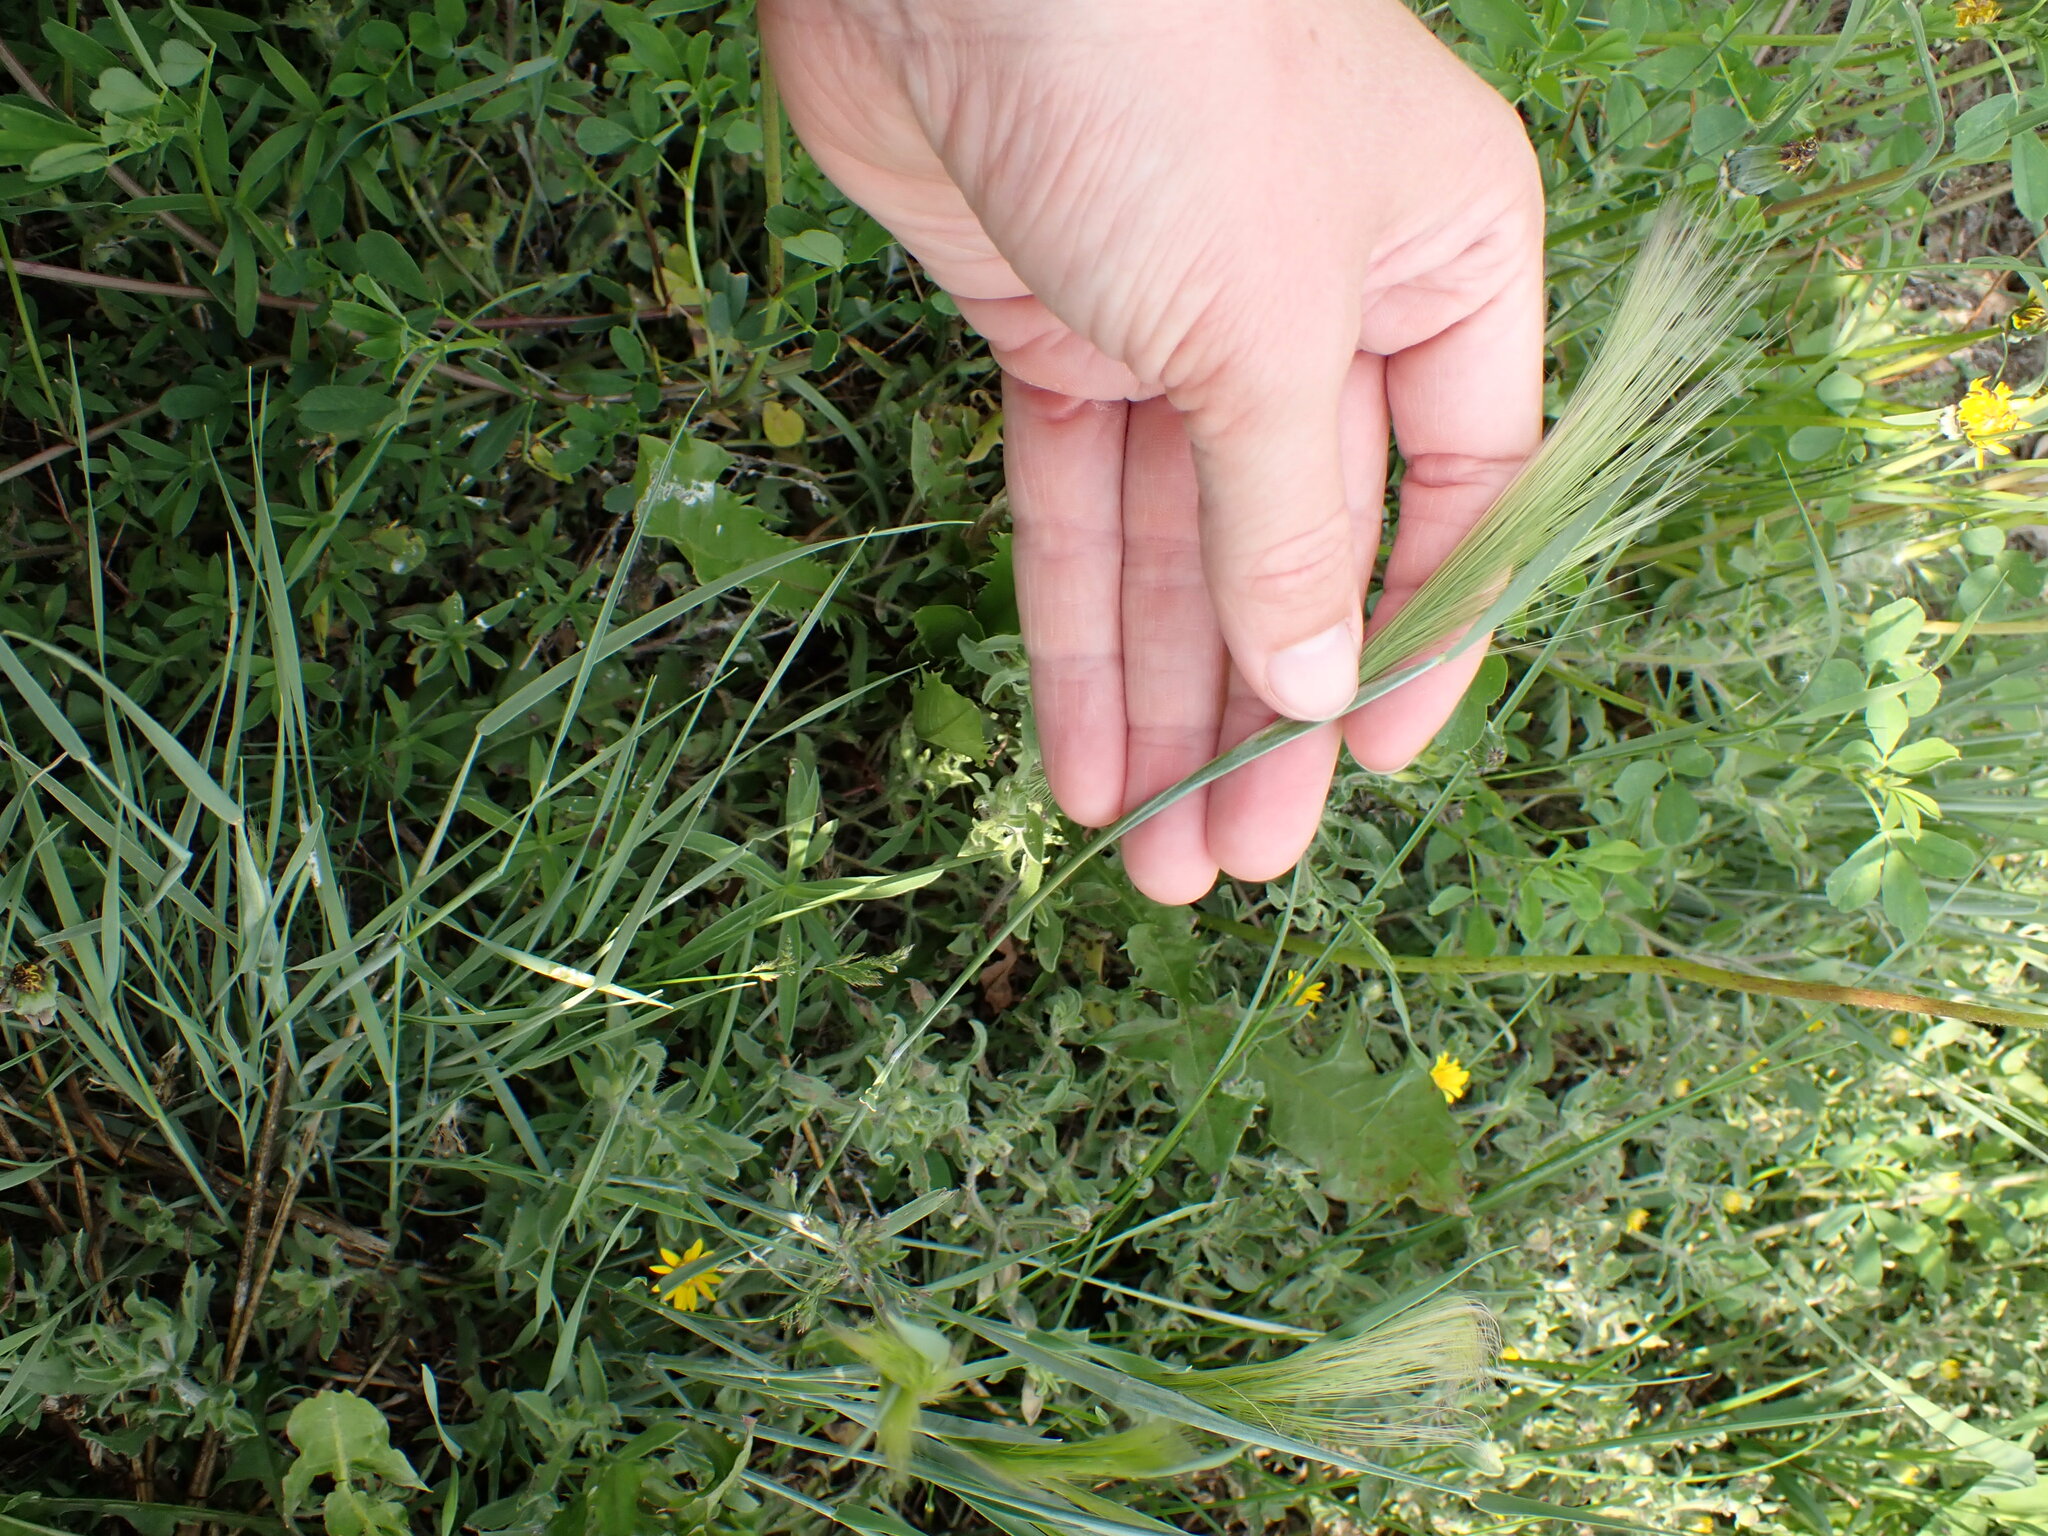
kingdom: Plantae
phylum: Tracheophyta
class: Liliopsida
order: Poales
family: Poaceae
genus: Hordeum
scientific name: Hordeum jubatum
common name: Foxtail barley
